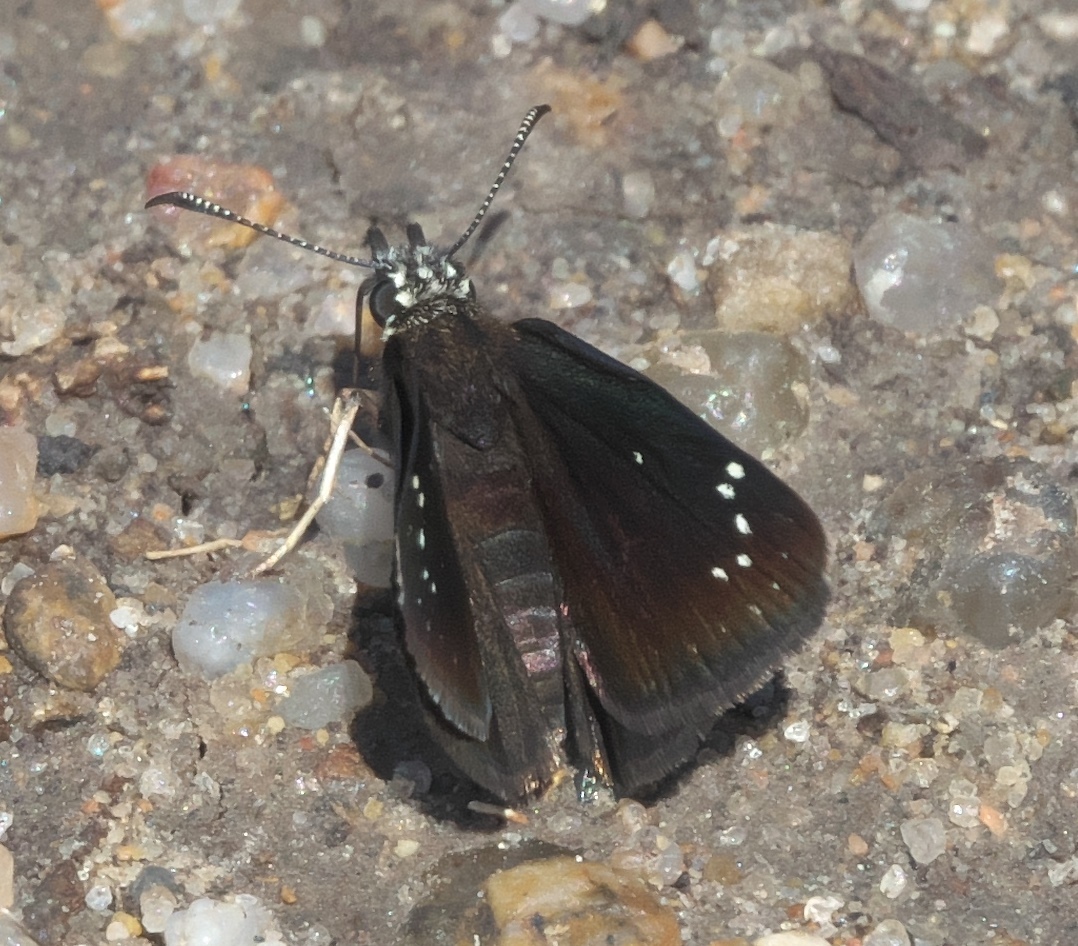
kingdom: Animalia
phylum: Arthropoda
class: Insecta
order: Lepidoptera
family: Hesperiidae
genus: Pholisora
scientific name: Pholisora catullus
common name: Common sootywing
